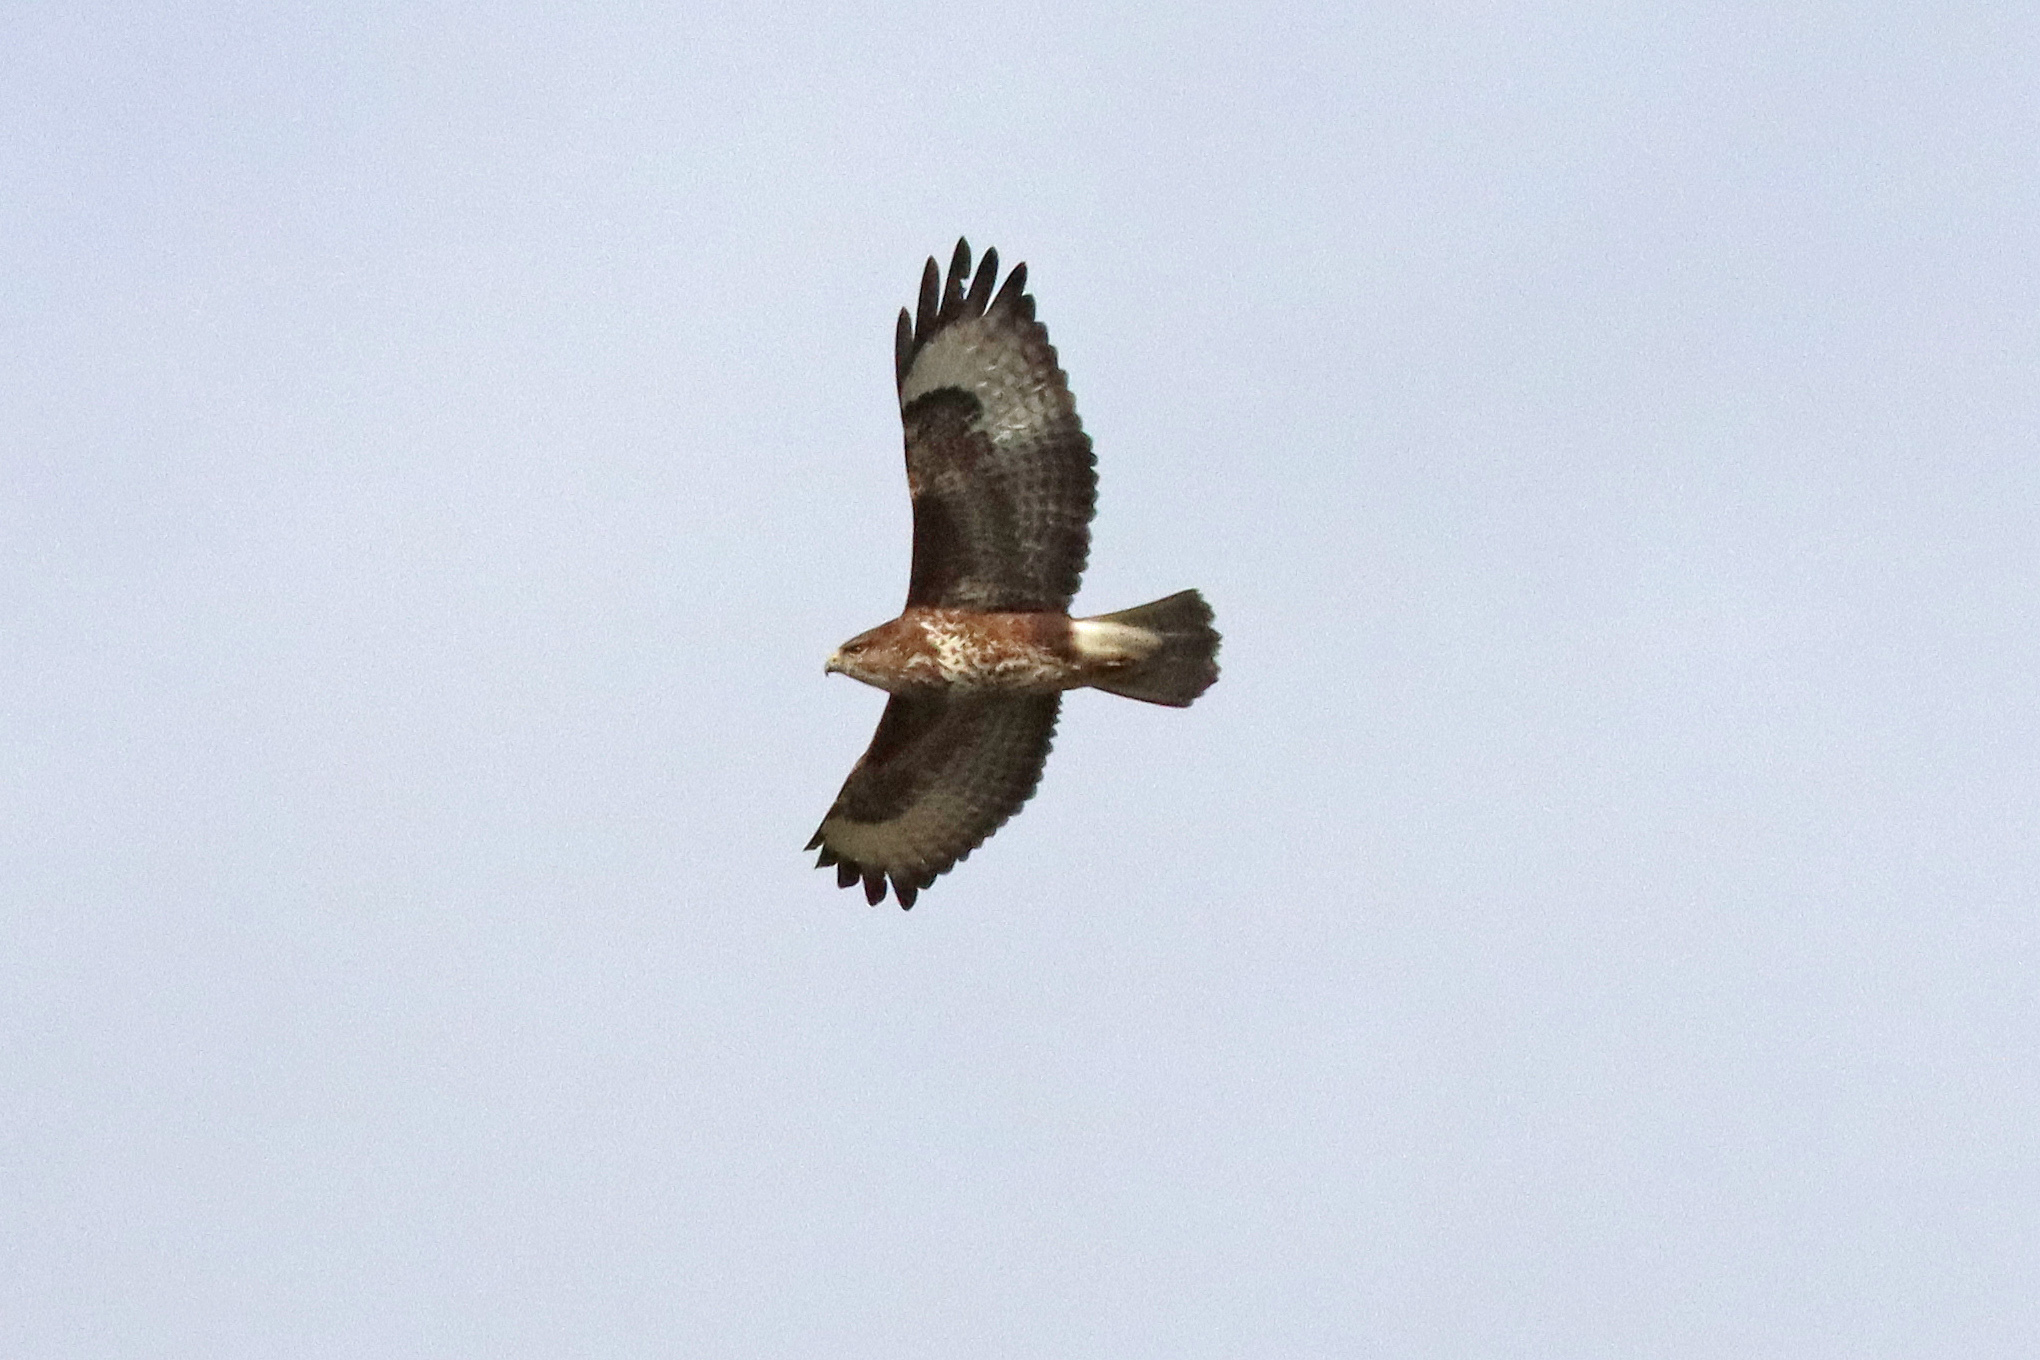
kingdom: Animalia
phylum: Chordata
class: Aves
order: Accipitriformes
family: Accipitridae
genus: Buteo
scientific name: Buteo buteo
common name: Common buzzard
